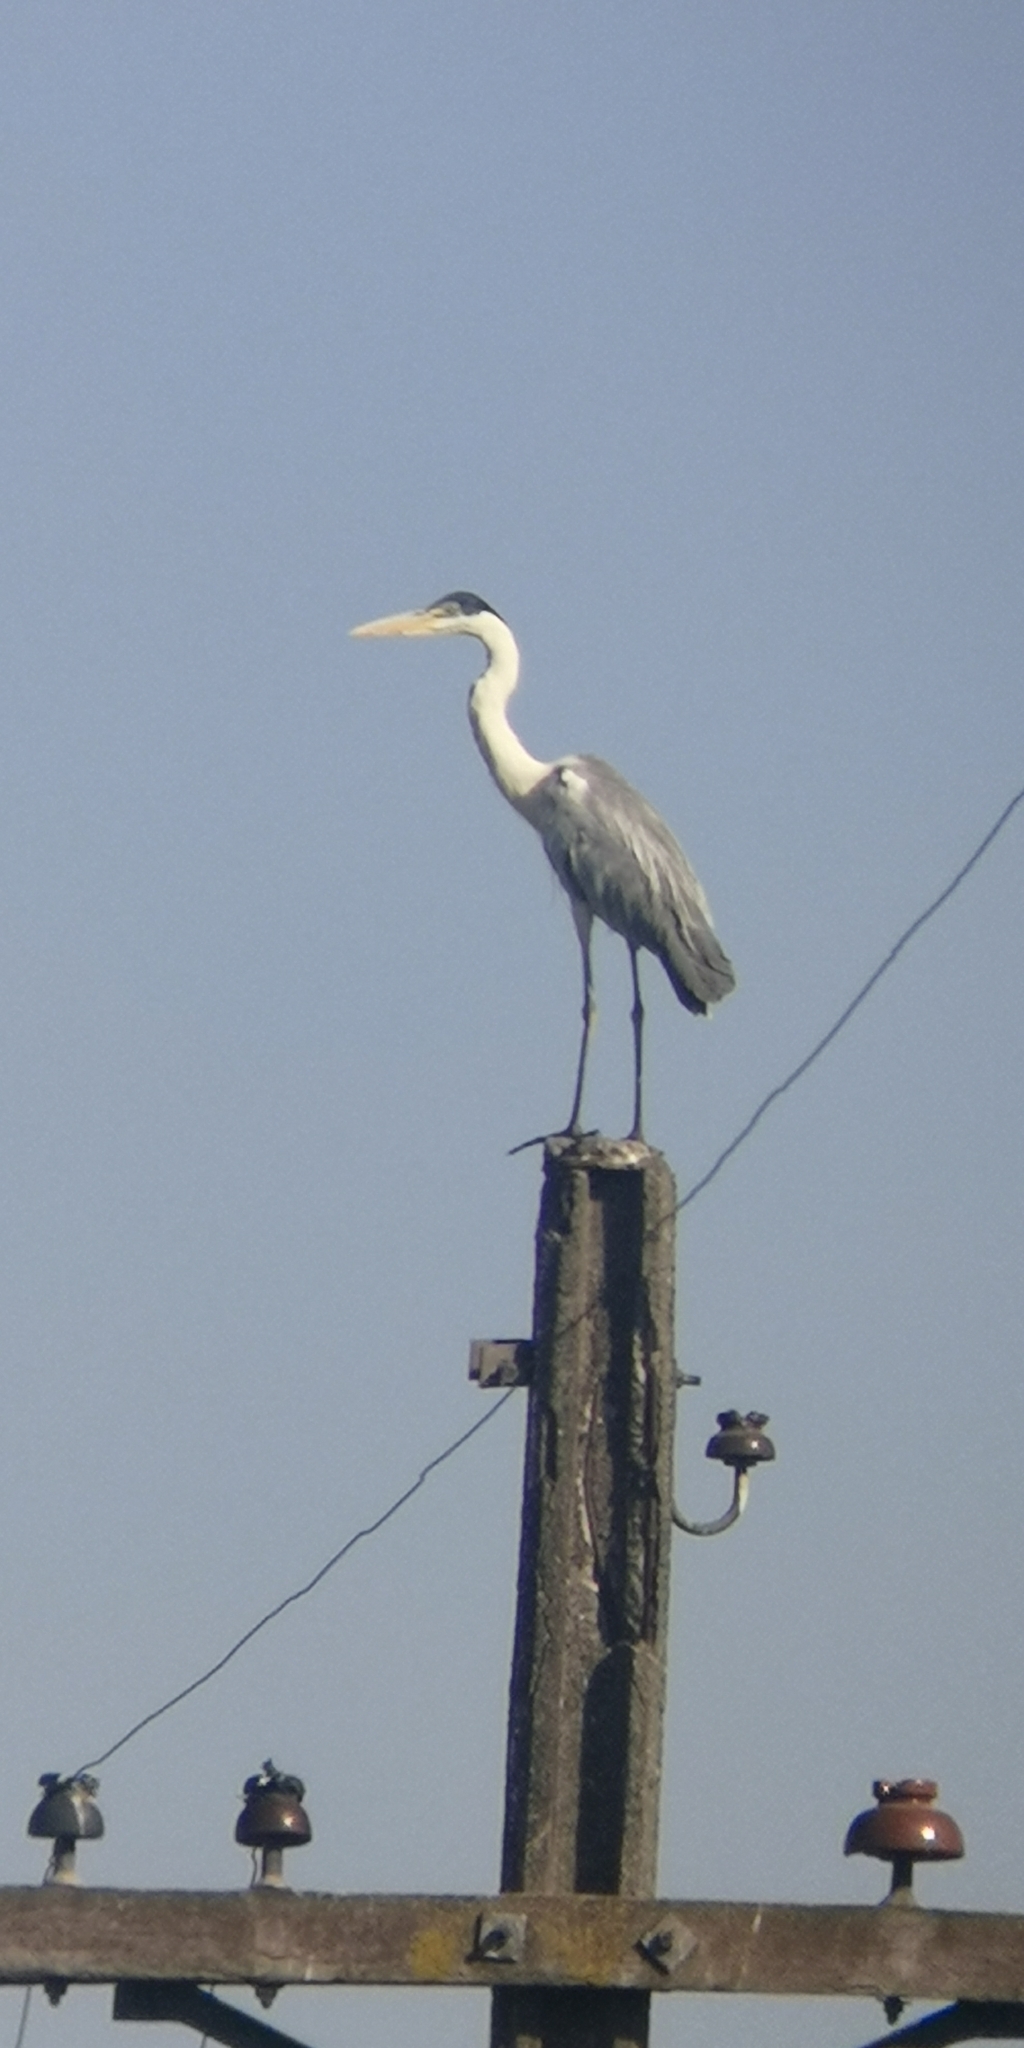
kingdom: Animalia
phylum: Chordata
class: Aves
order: Pelecaniformes
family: Ardeidae
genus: Ardea
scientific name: Ardea cocoi
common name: Cocoi heron
